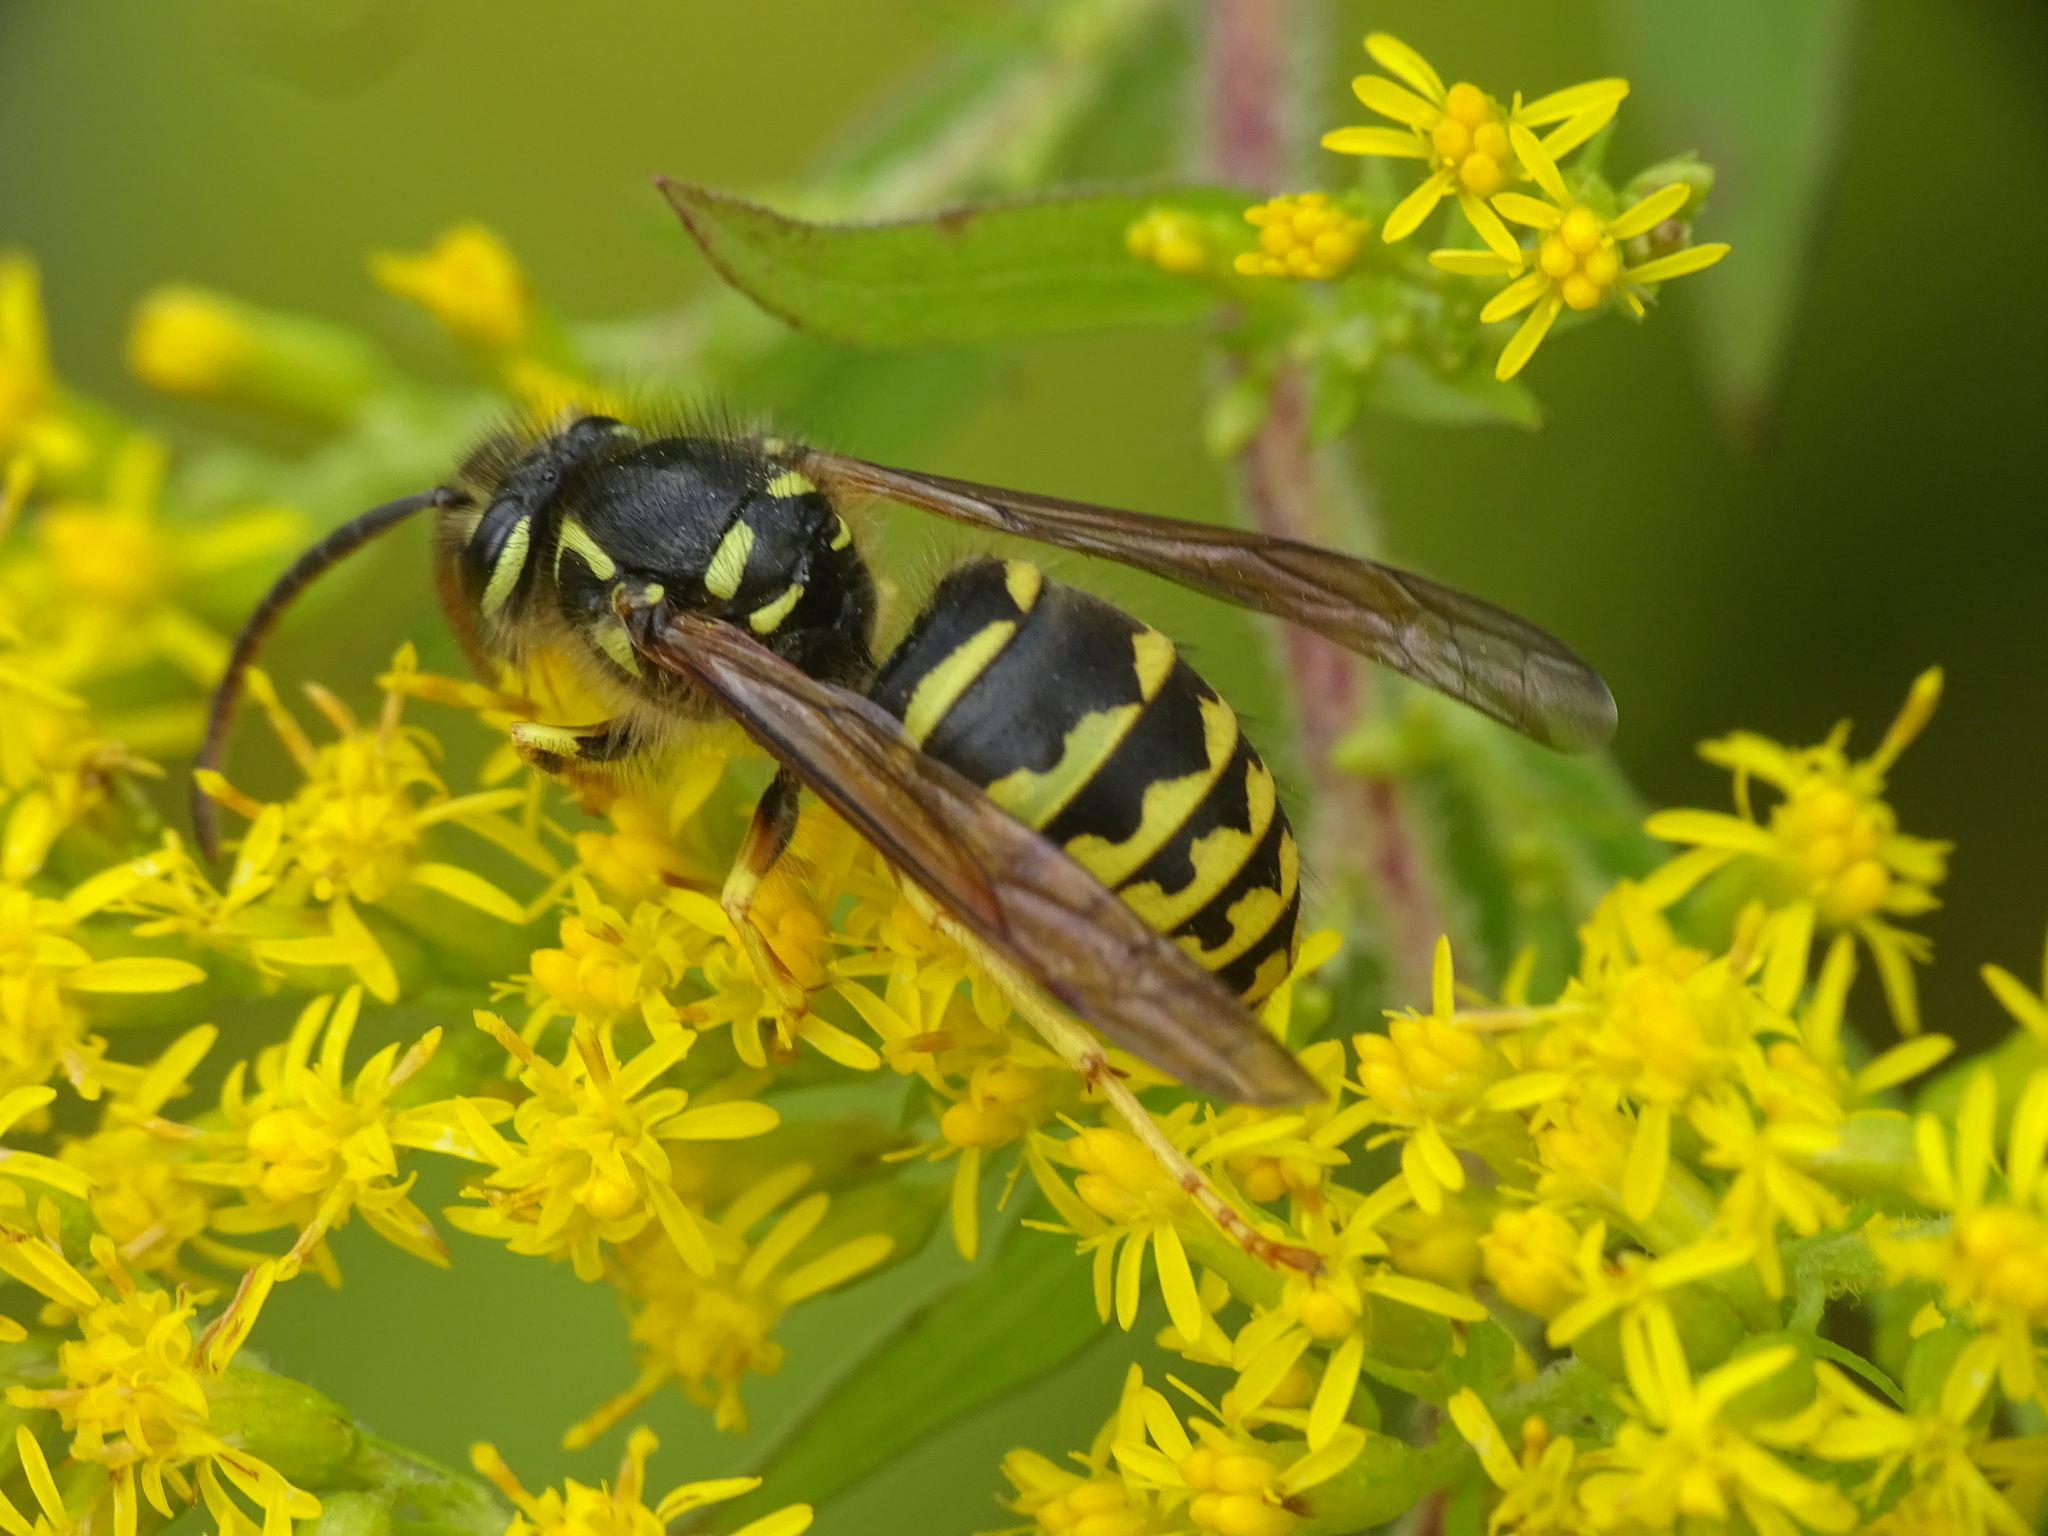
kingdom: Animalia
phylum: Arthropoda
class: Insecta
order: Hymenoptera
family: Vespidae
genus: Dolichovespula
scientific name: Dolichovespula arenaria
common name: Aerial yellowjacket
